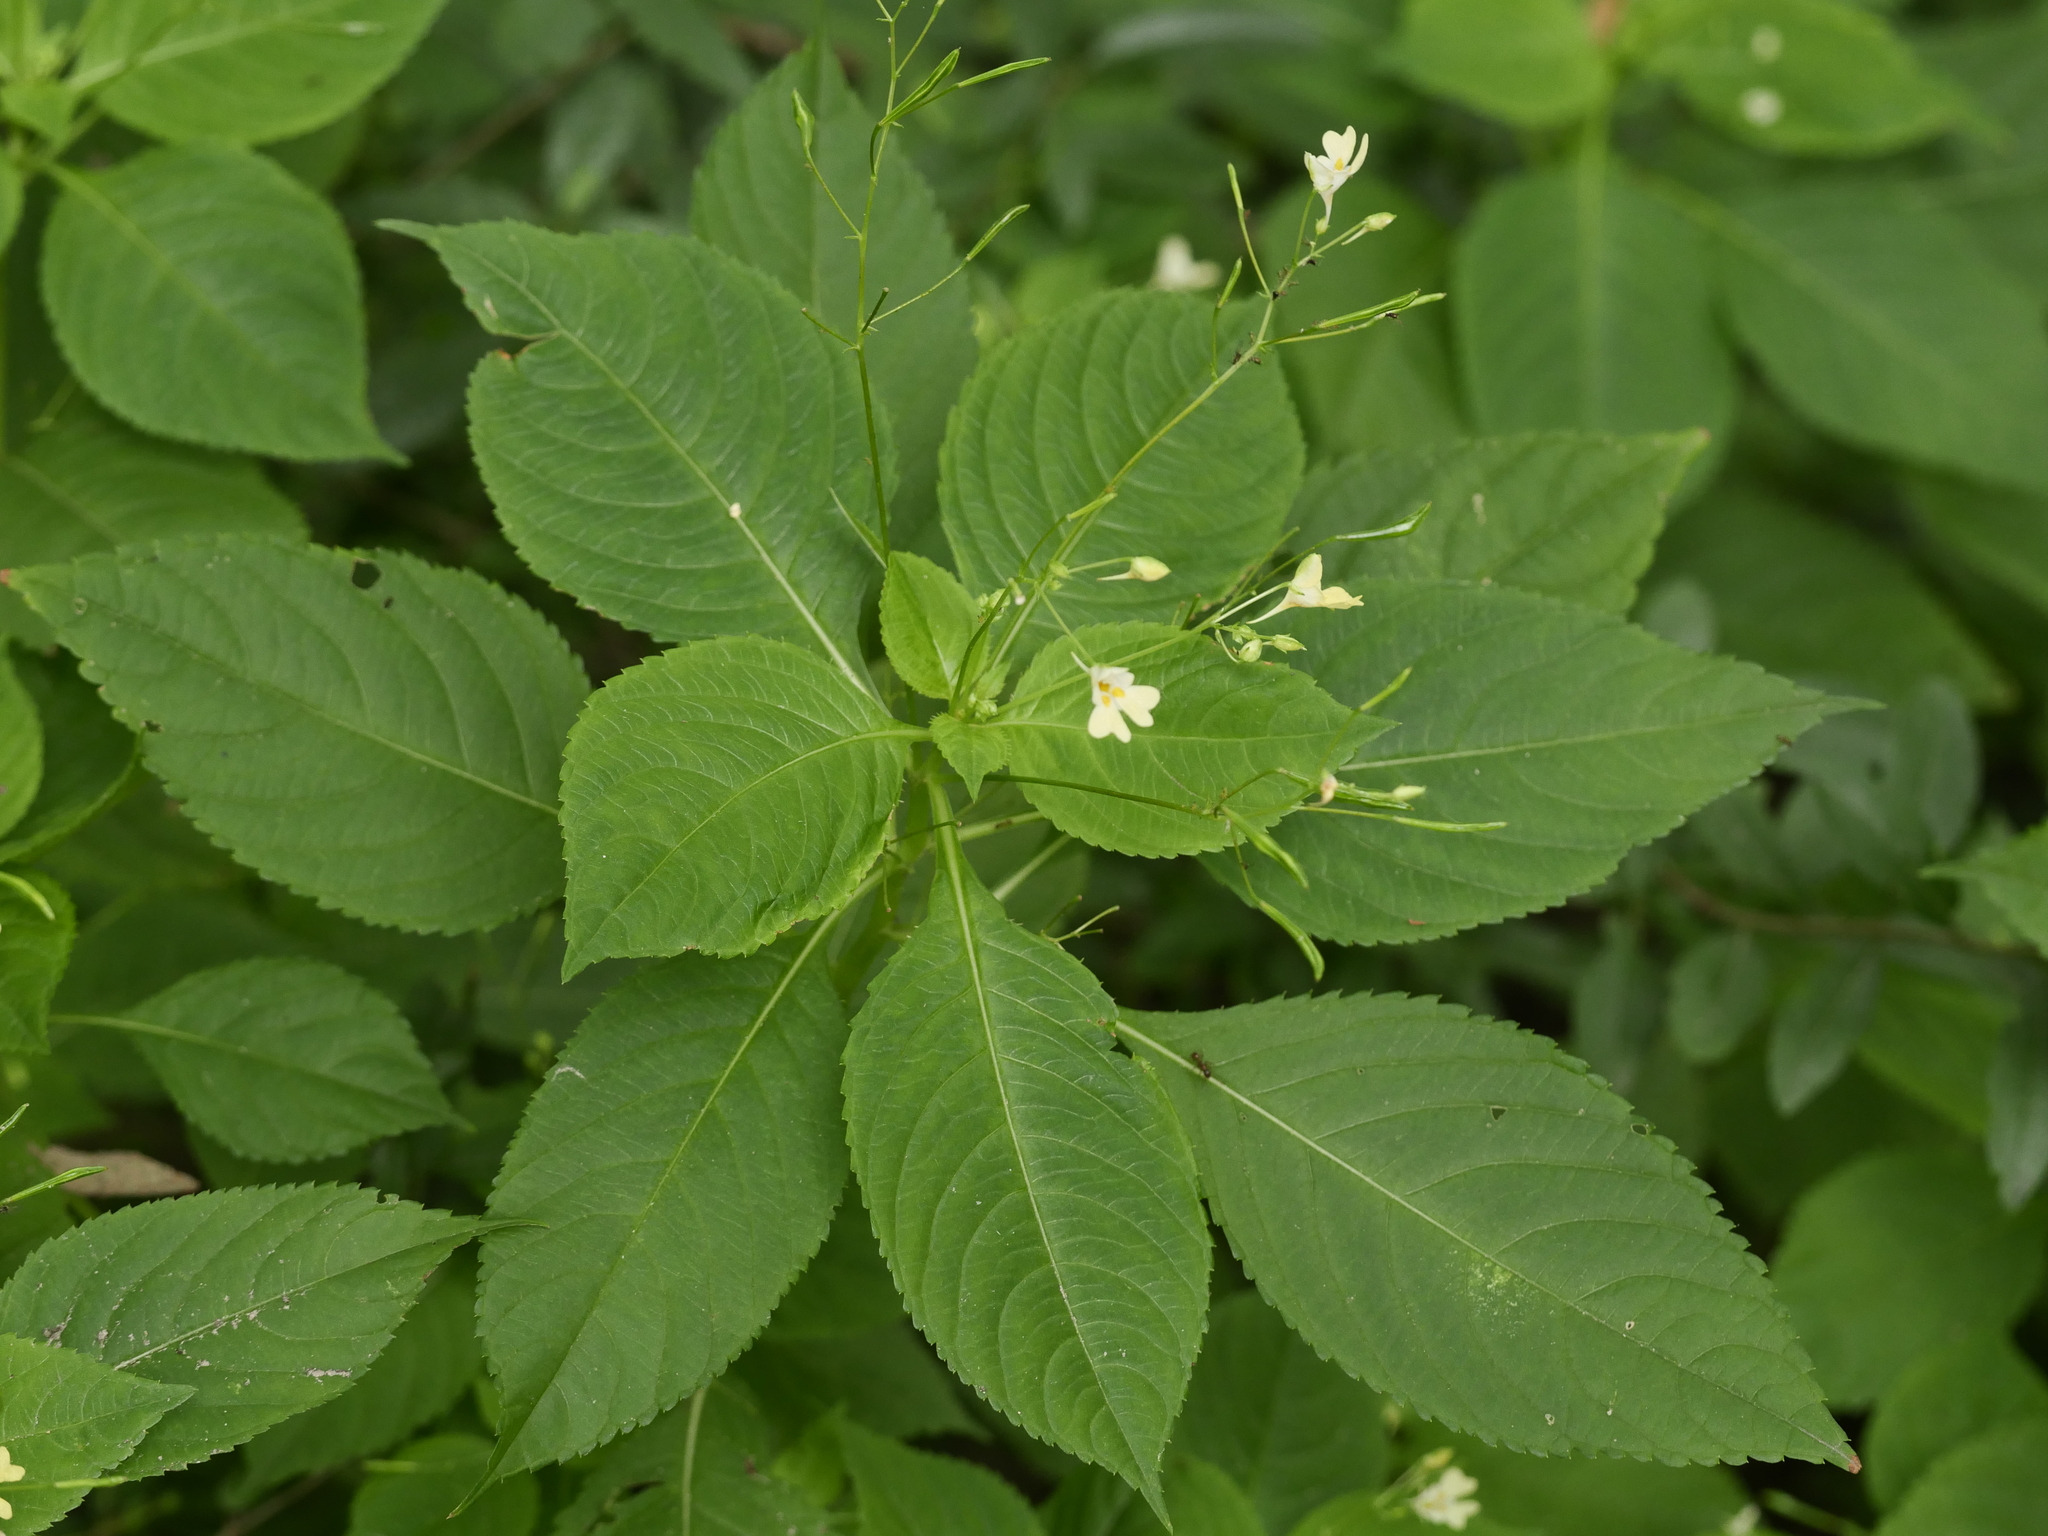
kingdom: Plantae
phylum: Tracheophyta
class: Magnoliopsida
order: Ericales
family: Balsaminaceae
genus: Impatiens
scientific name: Impatiens parviflora
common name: Small balsam
